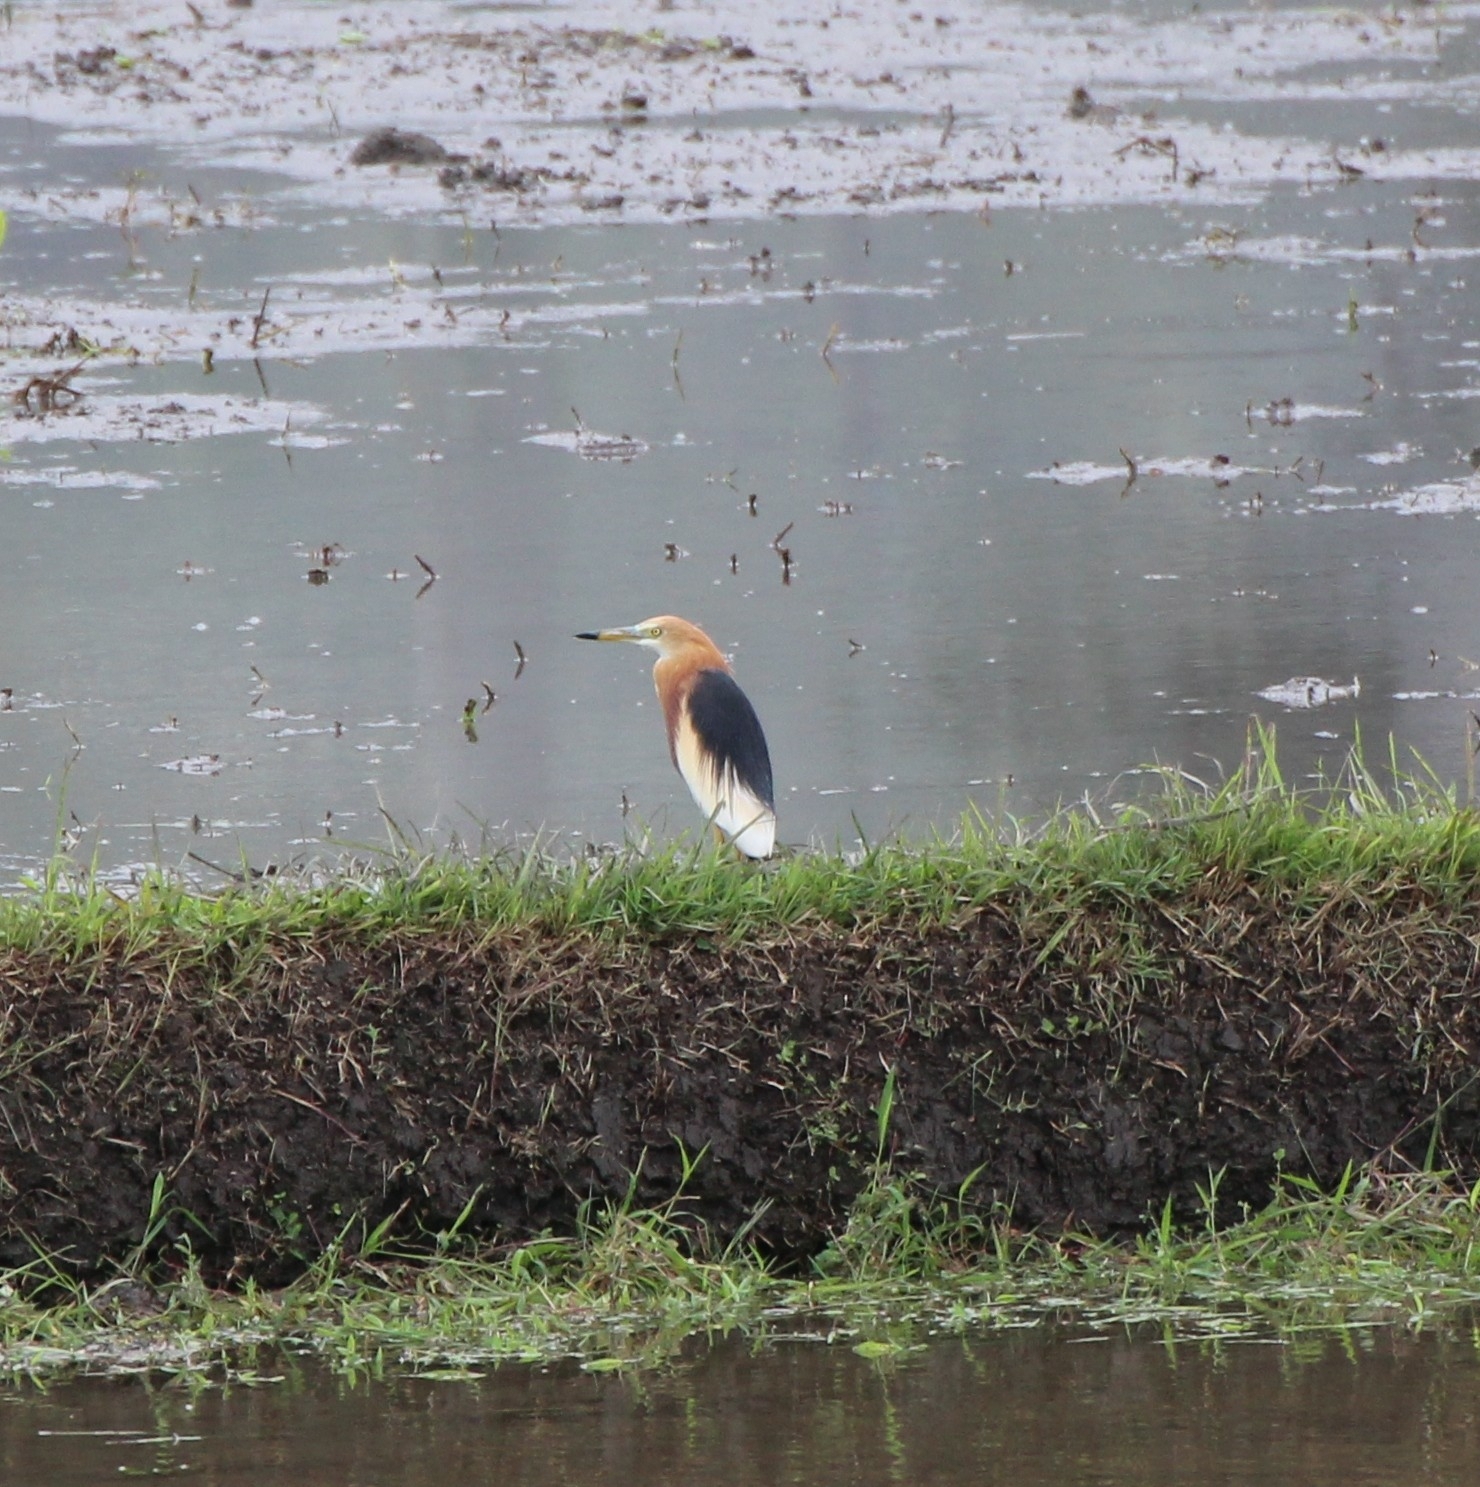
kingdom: Animalia
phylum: Chordata
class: Aves
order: Pelecaniformes
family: Ardeidae
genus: Ardeola
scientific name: Ardeola speciosa
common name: Javan pond heron
